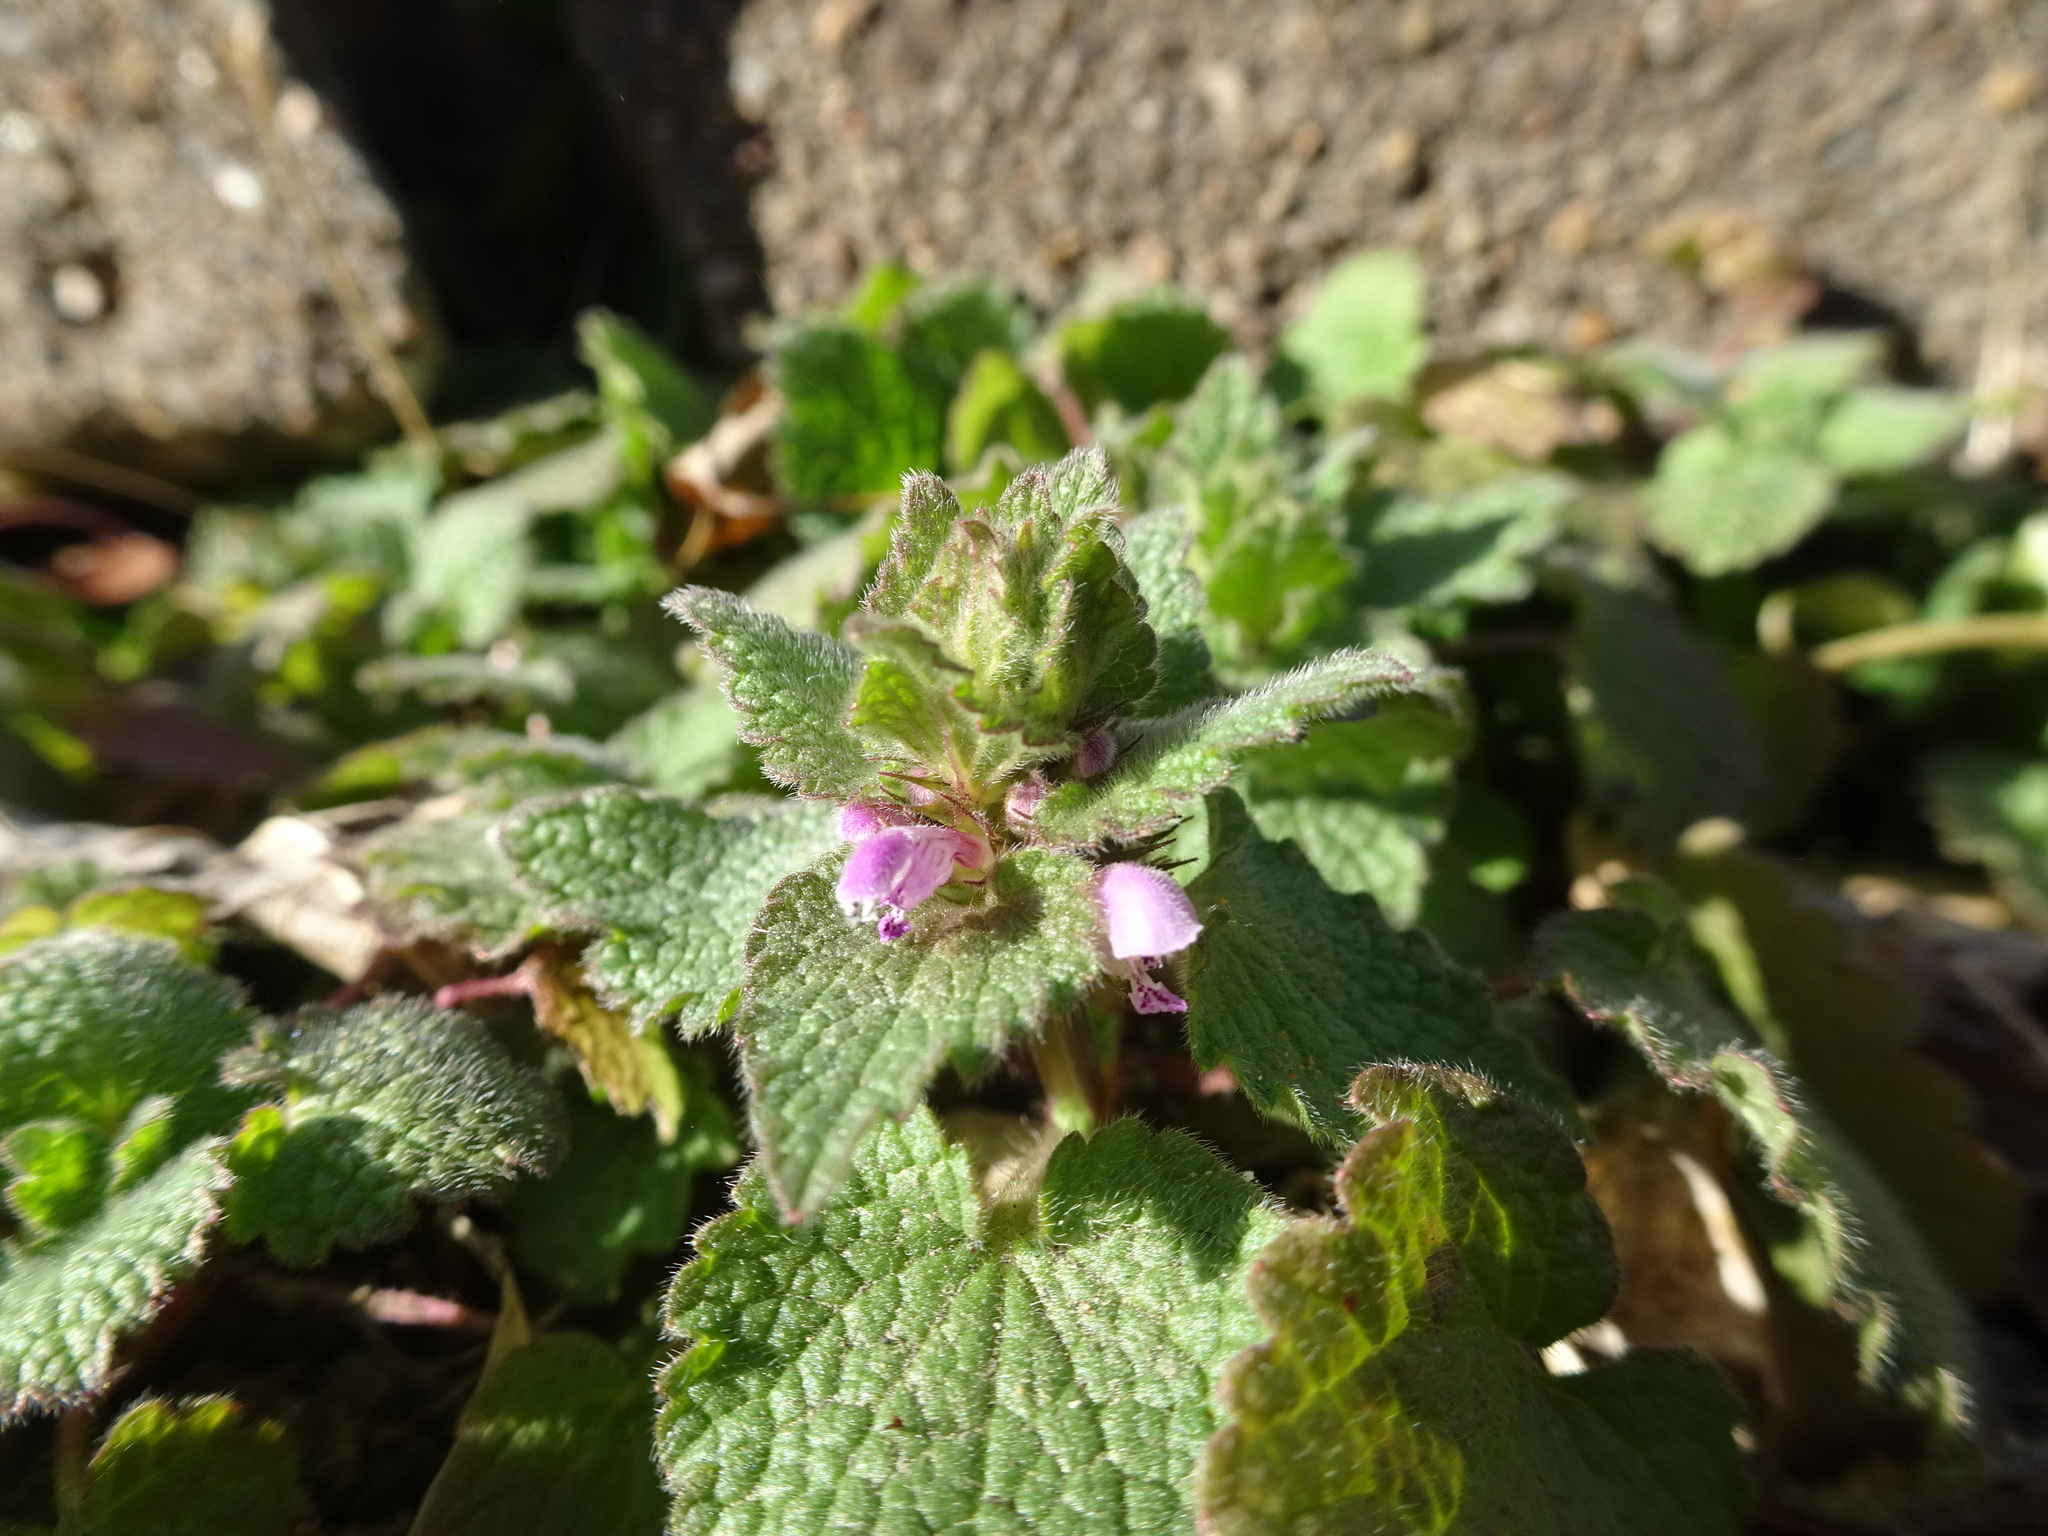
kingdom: Plantae
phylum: Tracheophyta
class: Magnoliopsida
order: Lamiales
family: Lamiaceae
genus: Lamium
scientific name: Lamium purpureum
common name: Red dead-nettle
